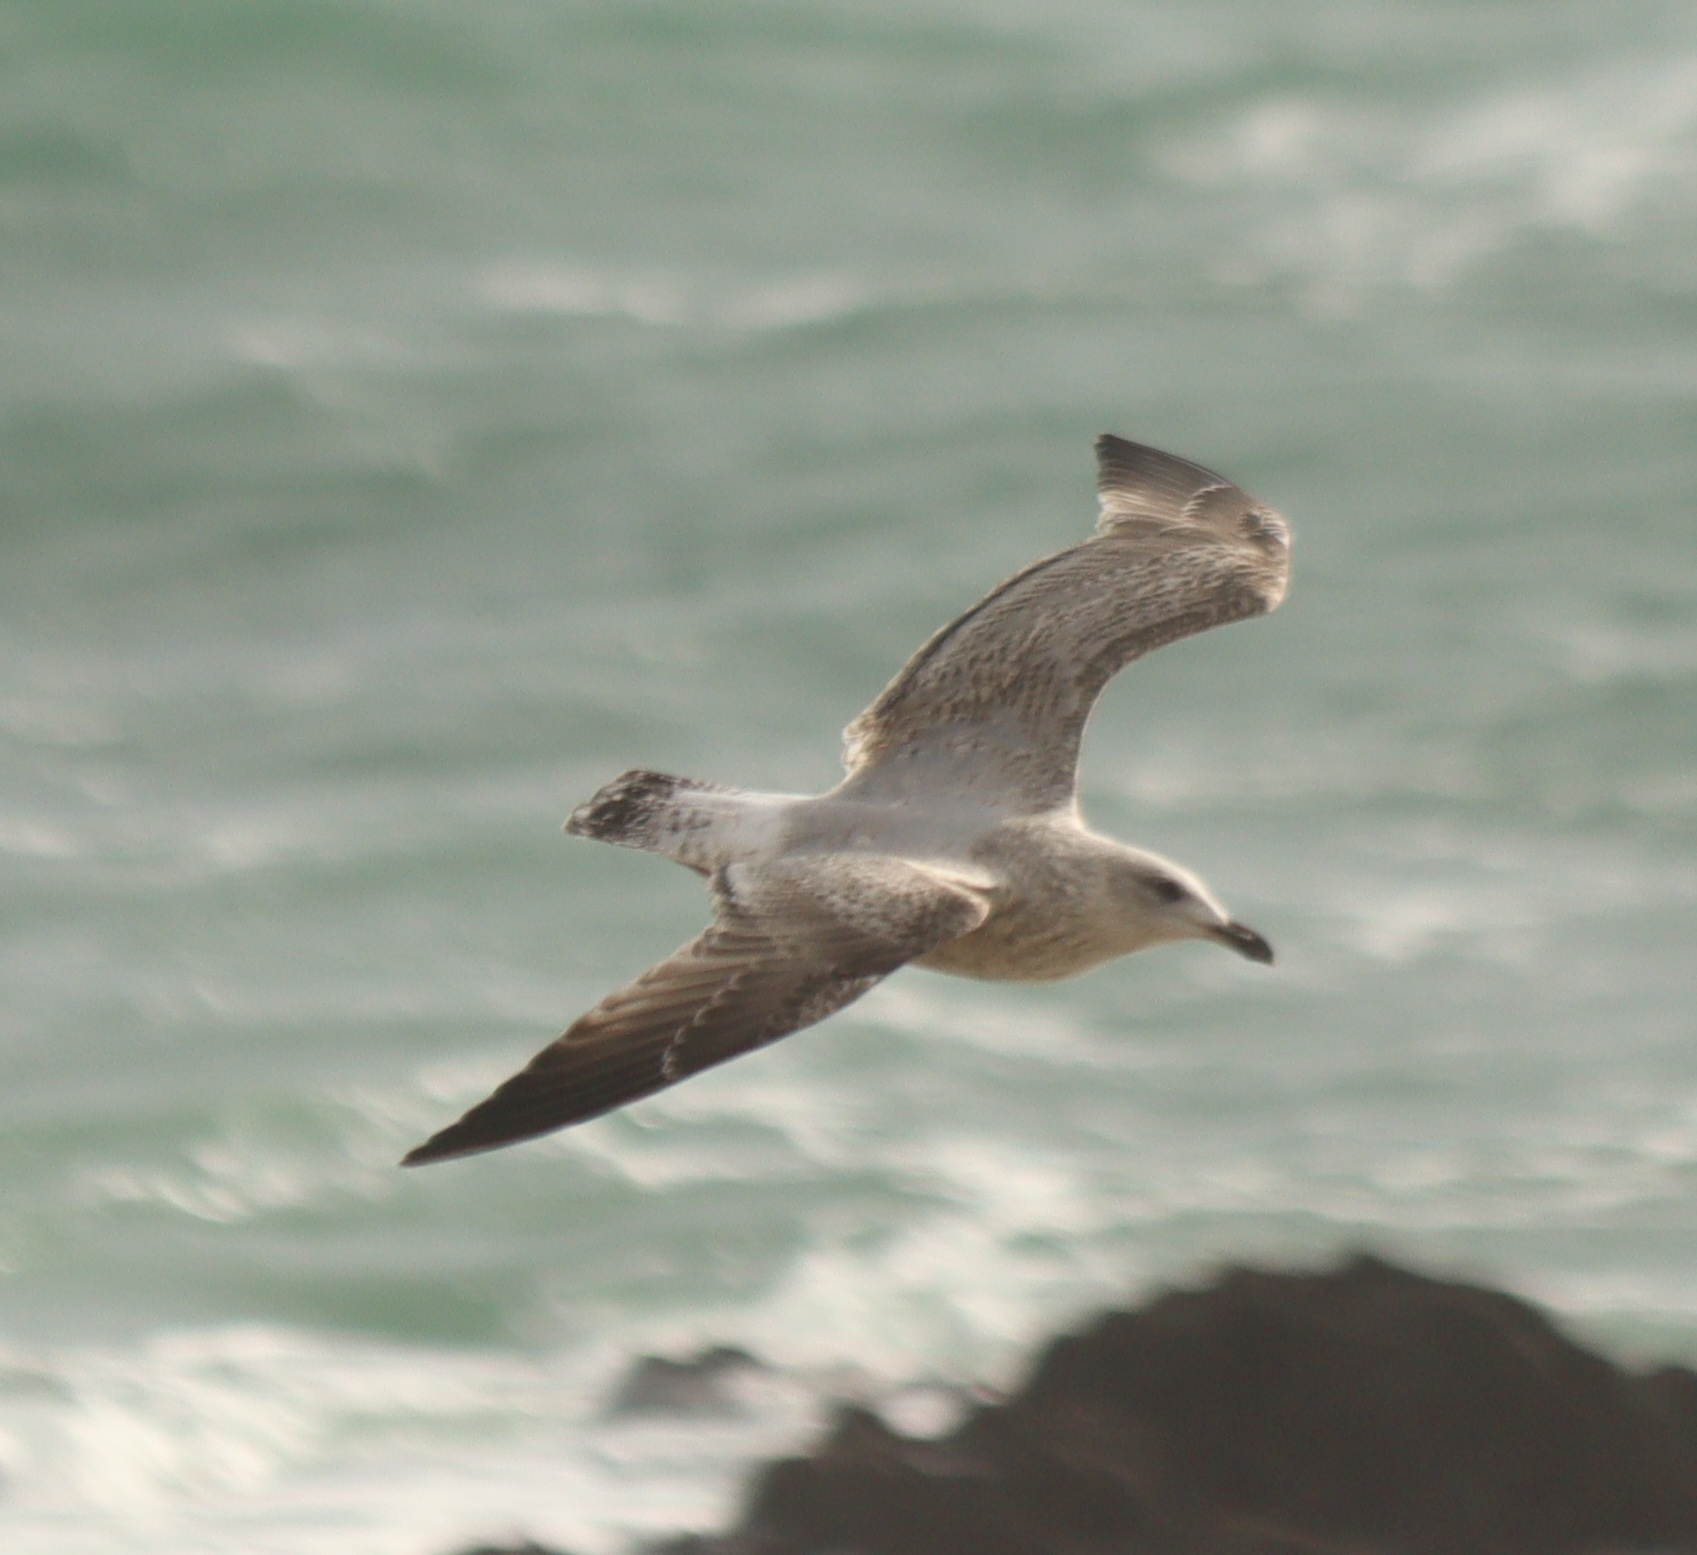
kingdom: Animalia
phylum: Chordata
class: Aves
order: Charadriiformes
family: Laridae
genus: Larus
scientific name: Larus argentatus
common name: Herring gull
